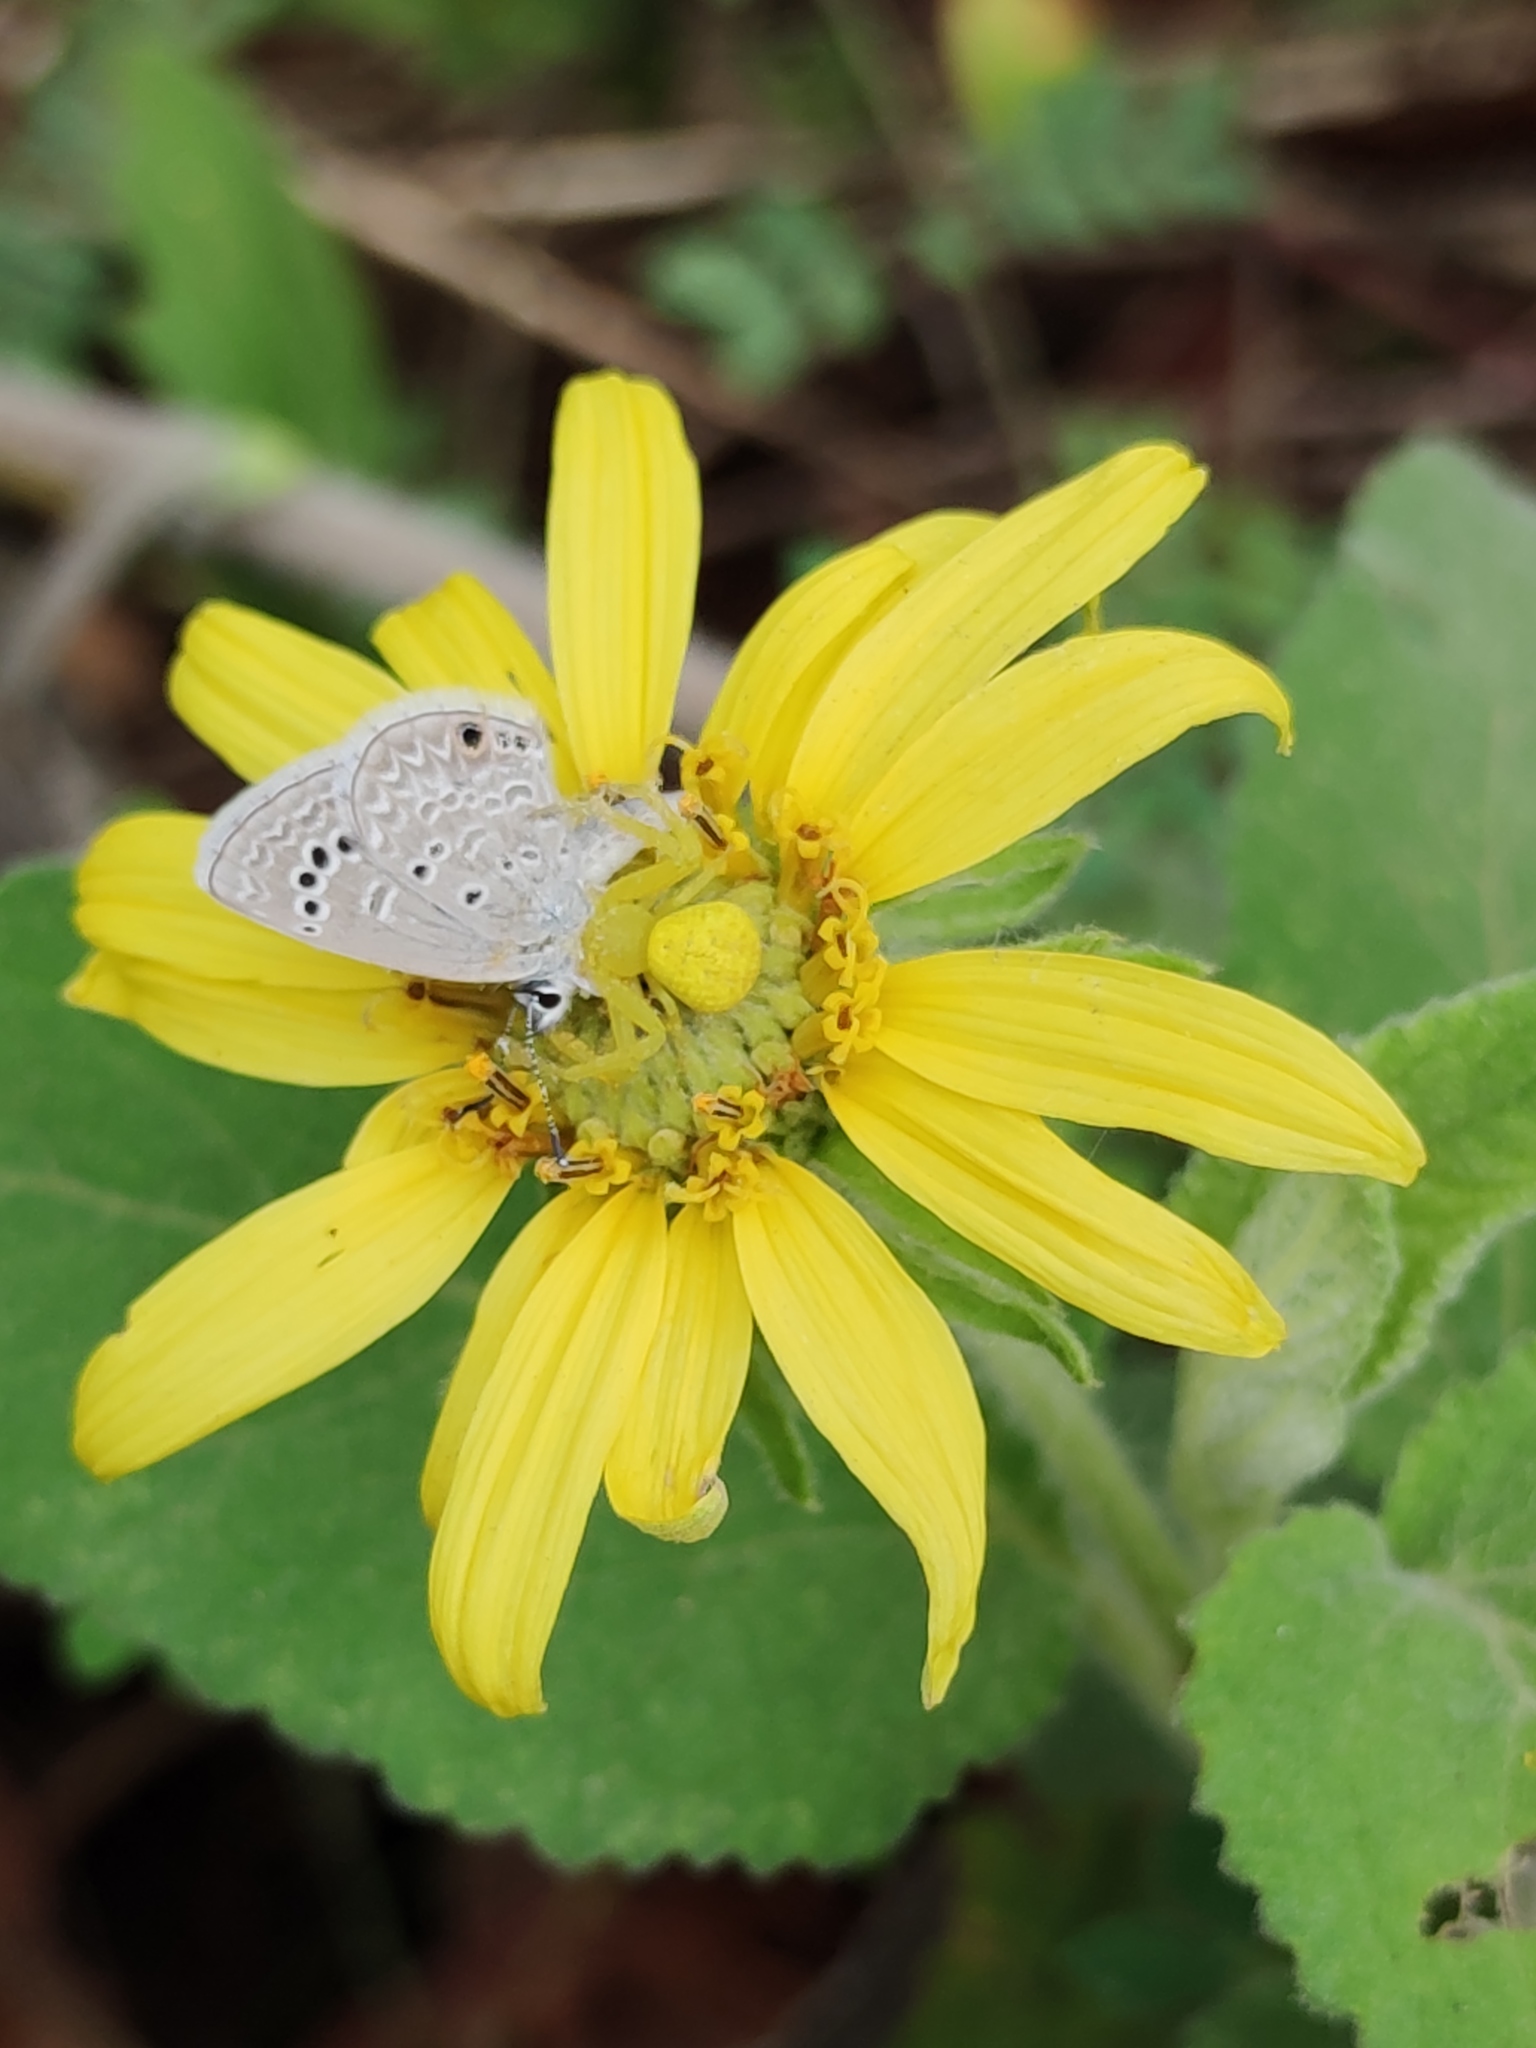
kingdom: Animalia
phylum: Arthropoda
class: Insecta
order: Lepidoptera
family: Lycaenidae
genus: Echinargus
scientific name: Echinargus isola
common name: Reakirt's blue
